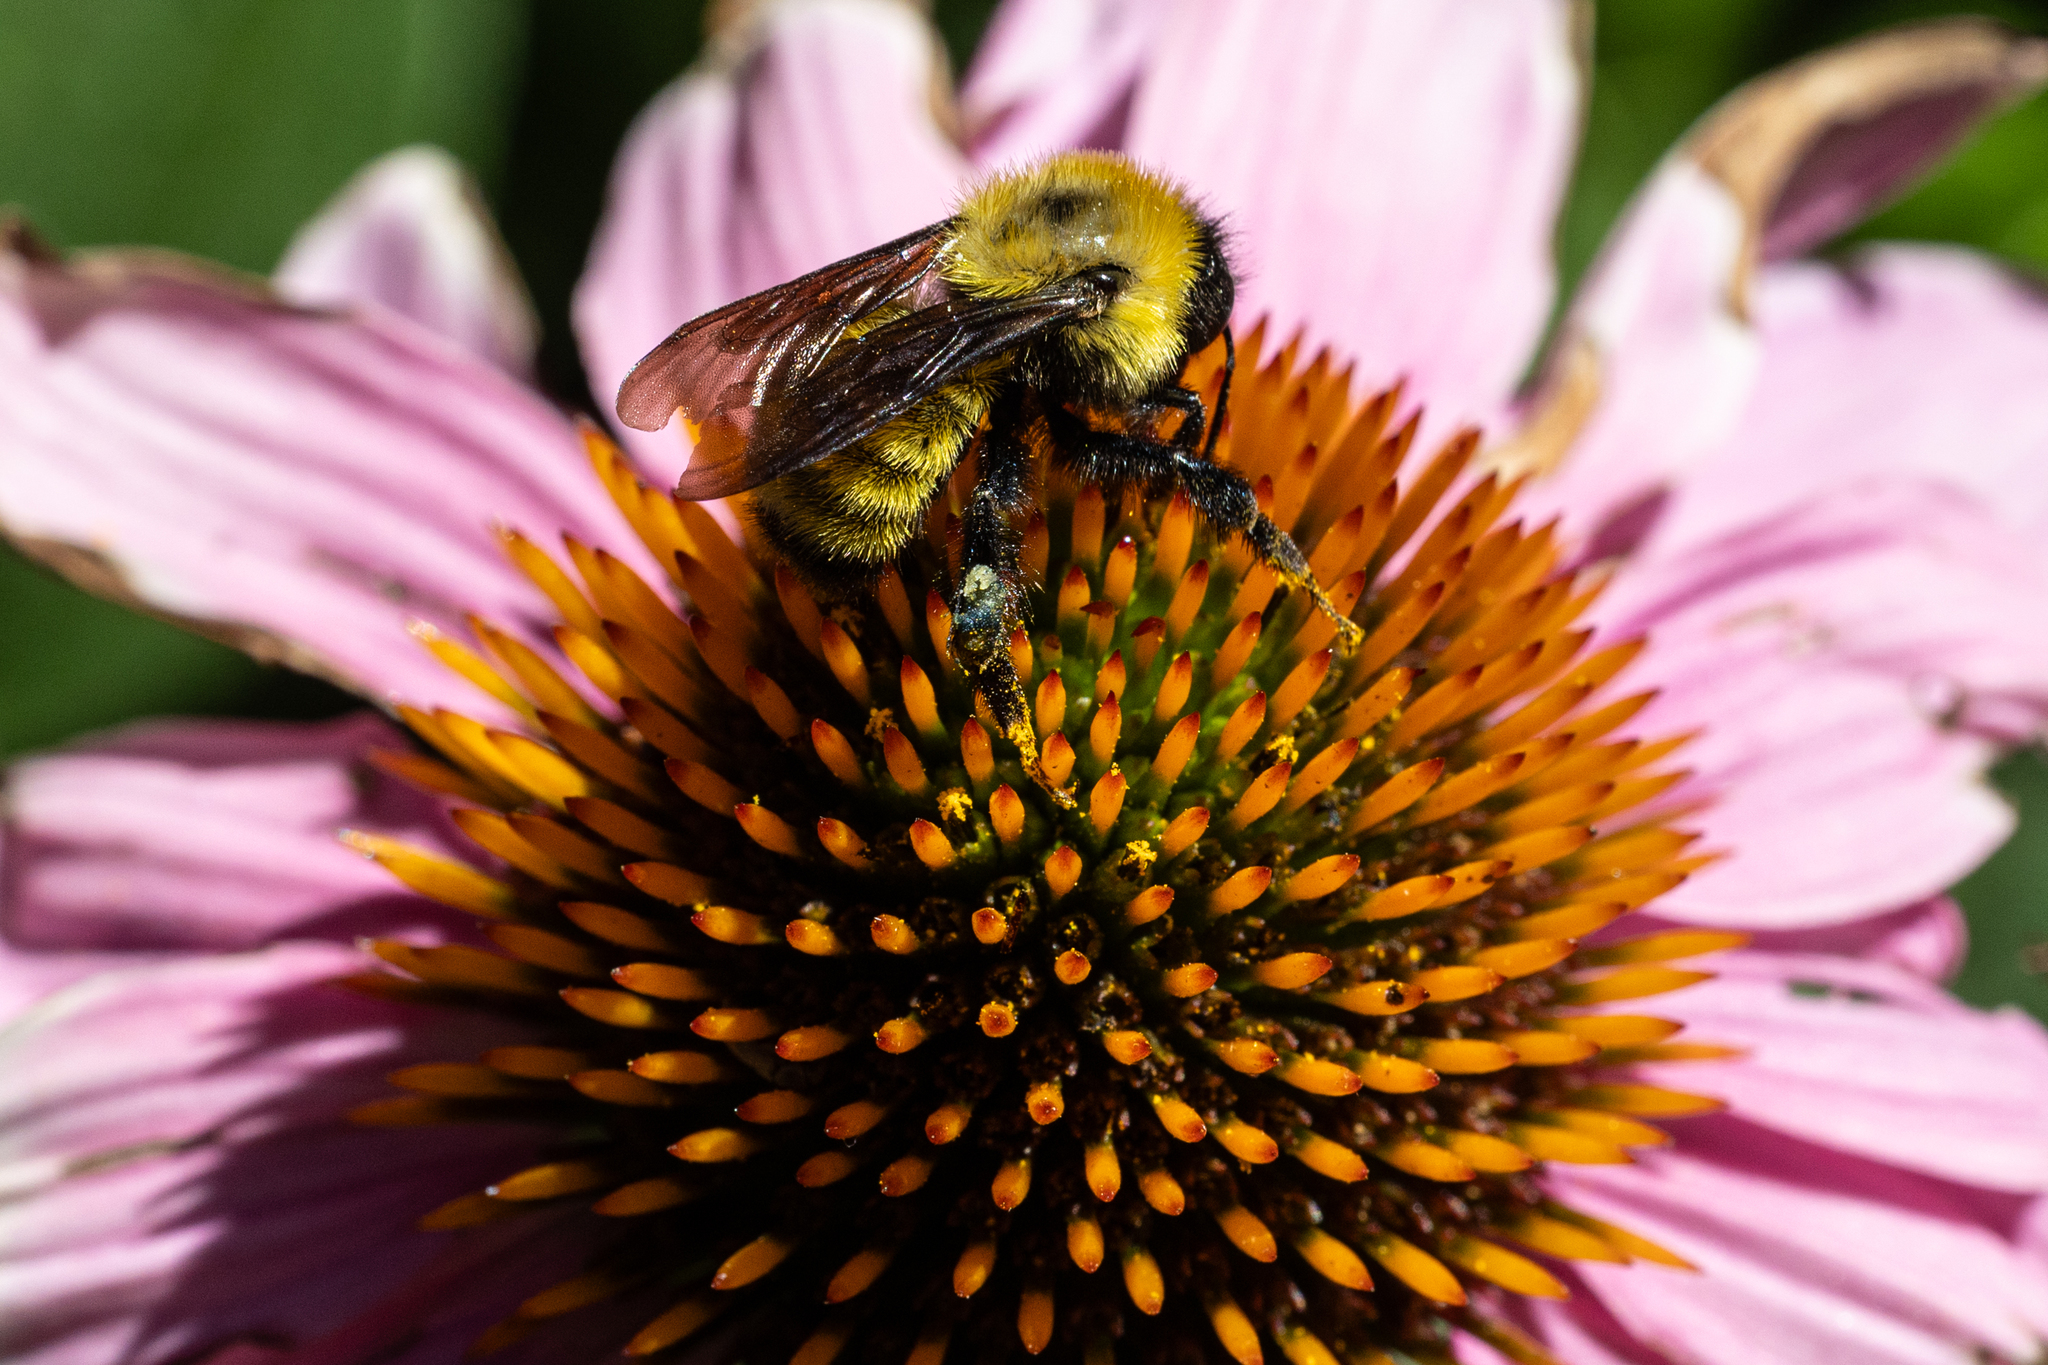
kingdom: Animalia
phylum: Arthropoda
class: Insecta
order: Hymenoptera
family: Apidae
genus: Bombus
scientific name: Bombus fervidus
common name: Yellow bumble bee
